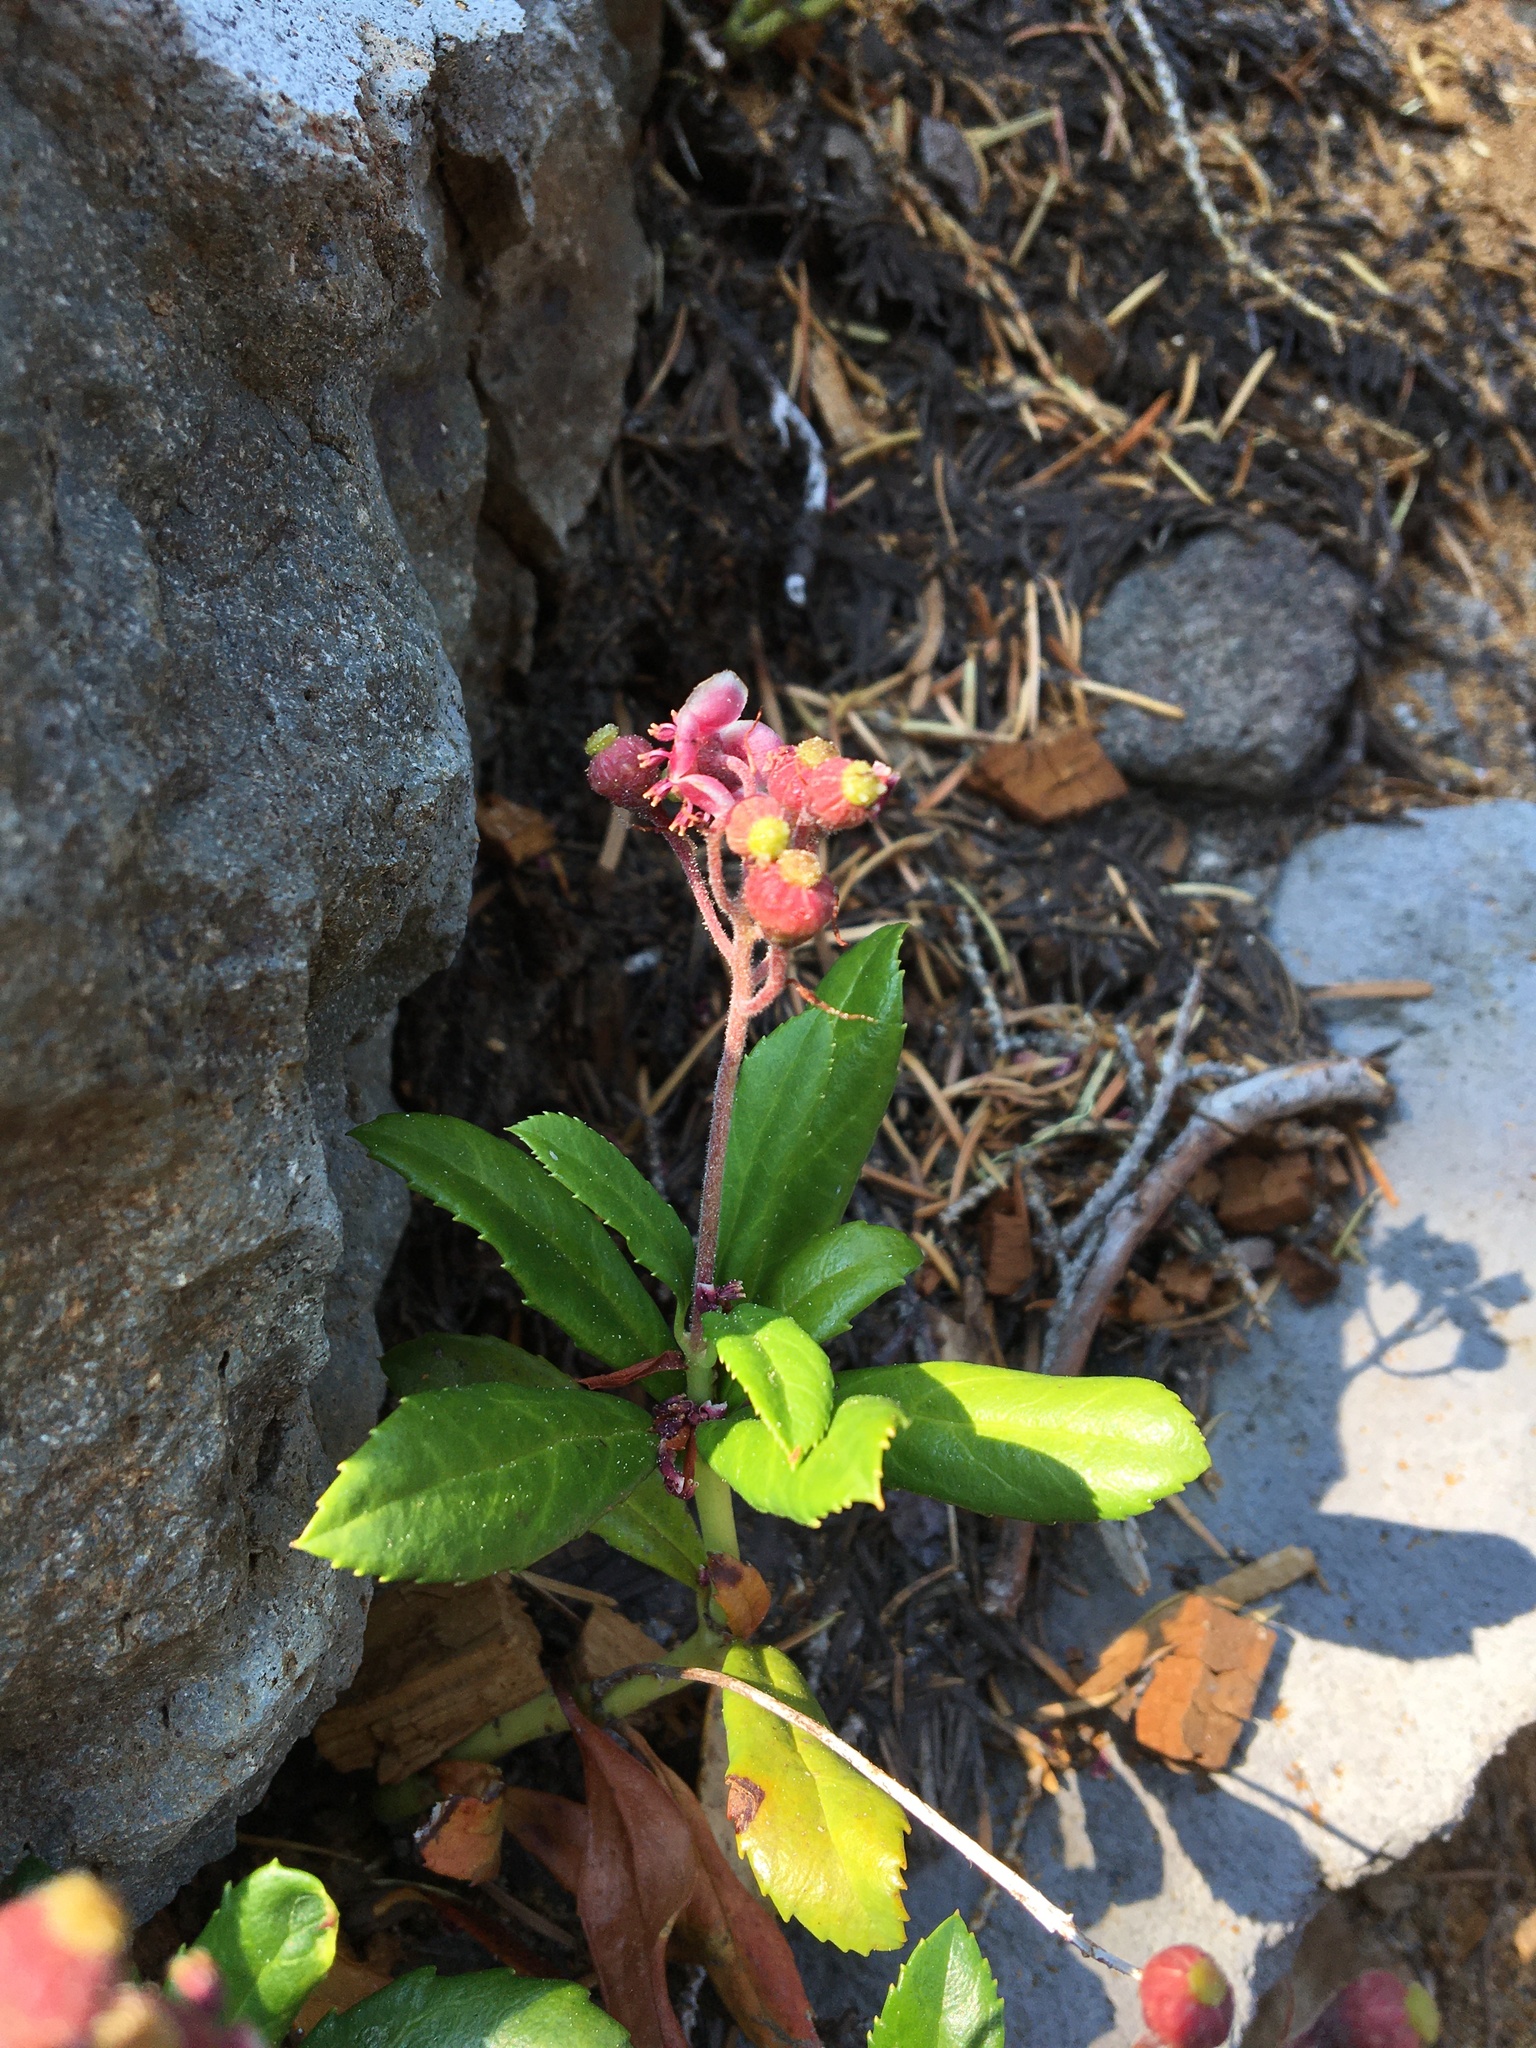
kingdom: Plantae
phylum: Tracheophyta
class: Magnoliopsida
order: Ericales
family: Ericaceae
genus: Chimaphila
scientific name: Chimaphila umbellata
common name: Pipsissewa
